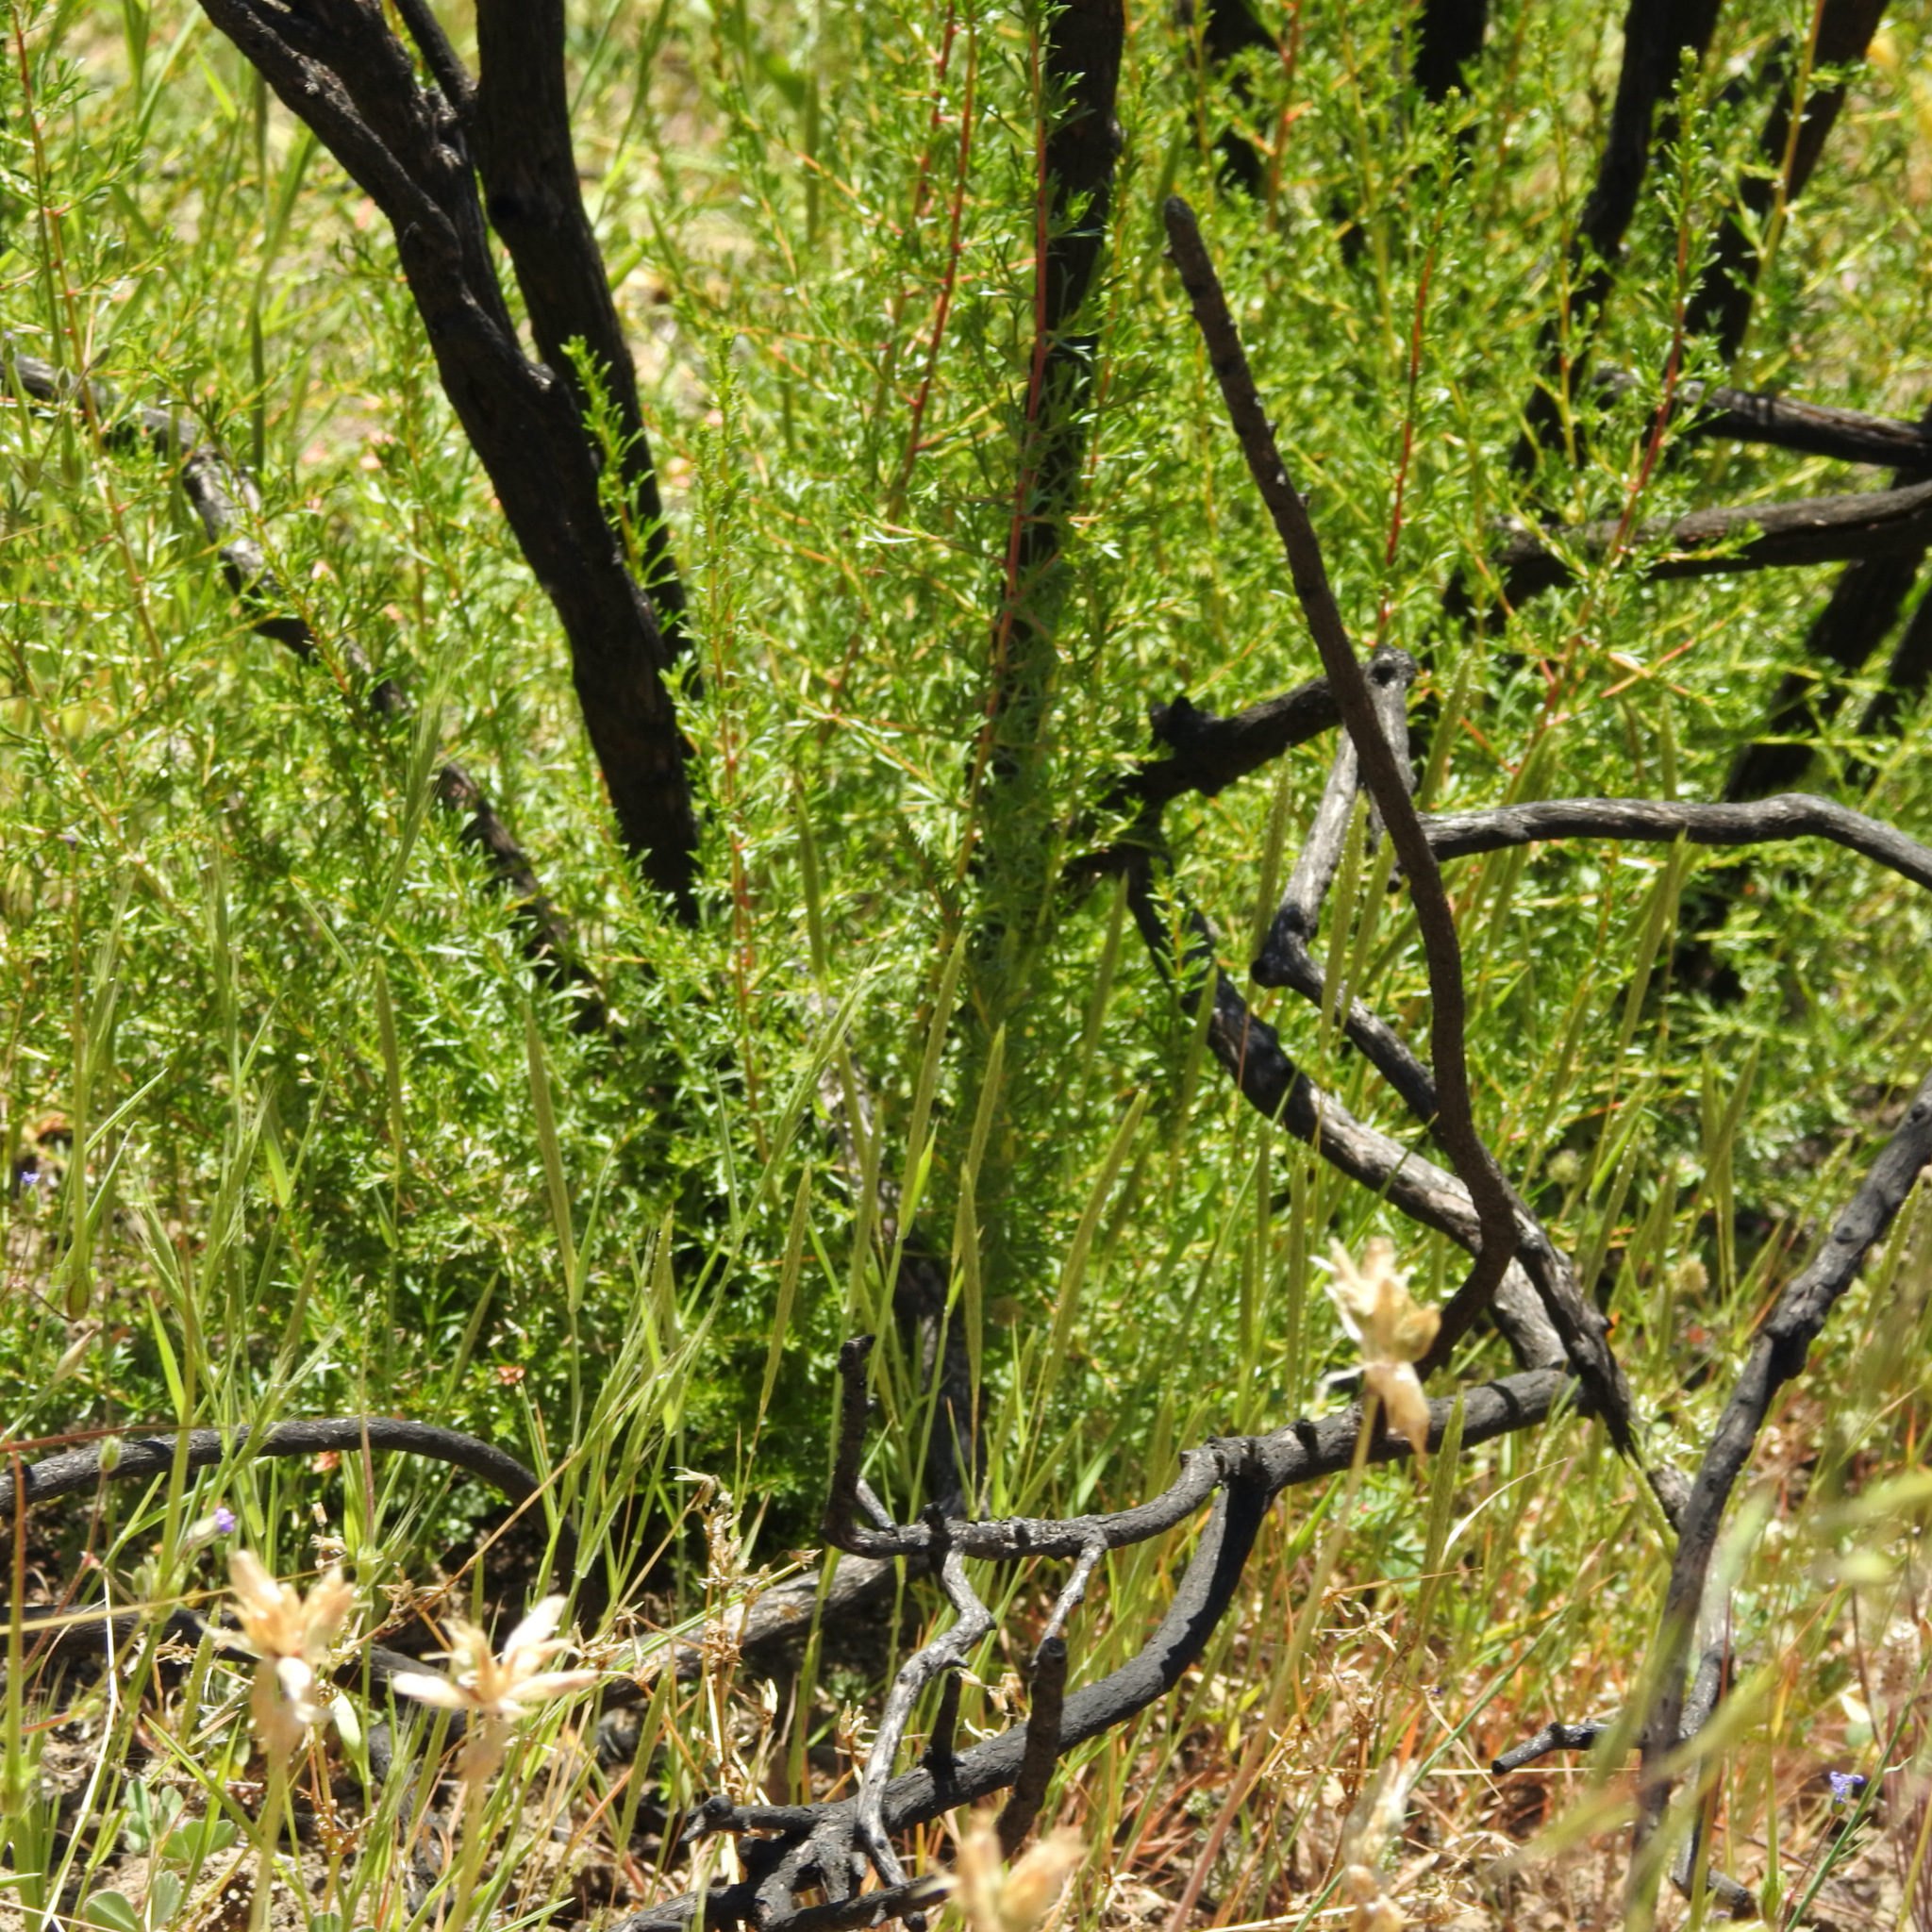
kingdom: Plantae
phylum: Tracheophyta
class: Magnoliopsida
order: Rosales
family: Rosaceae
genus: Adenostoma
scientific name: Adenostoma fasciculatum
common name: Chamise
